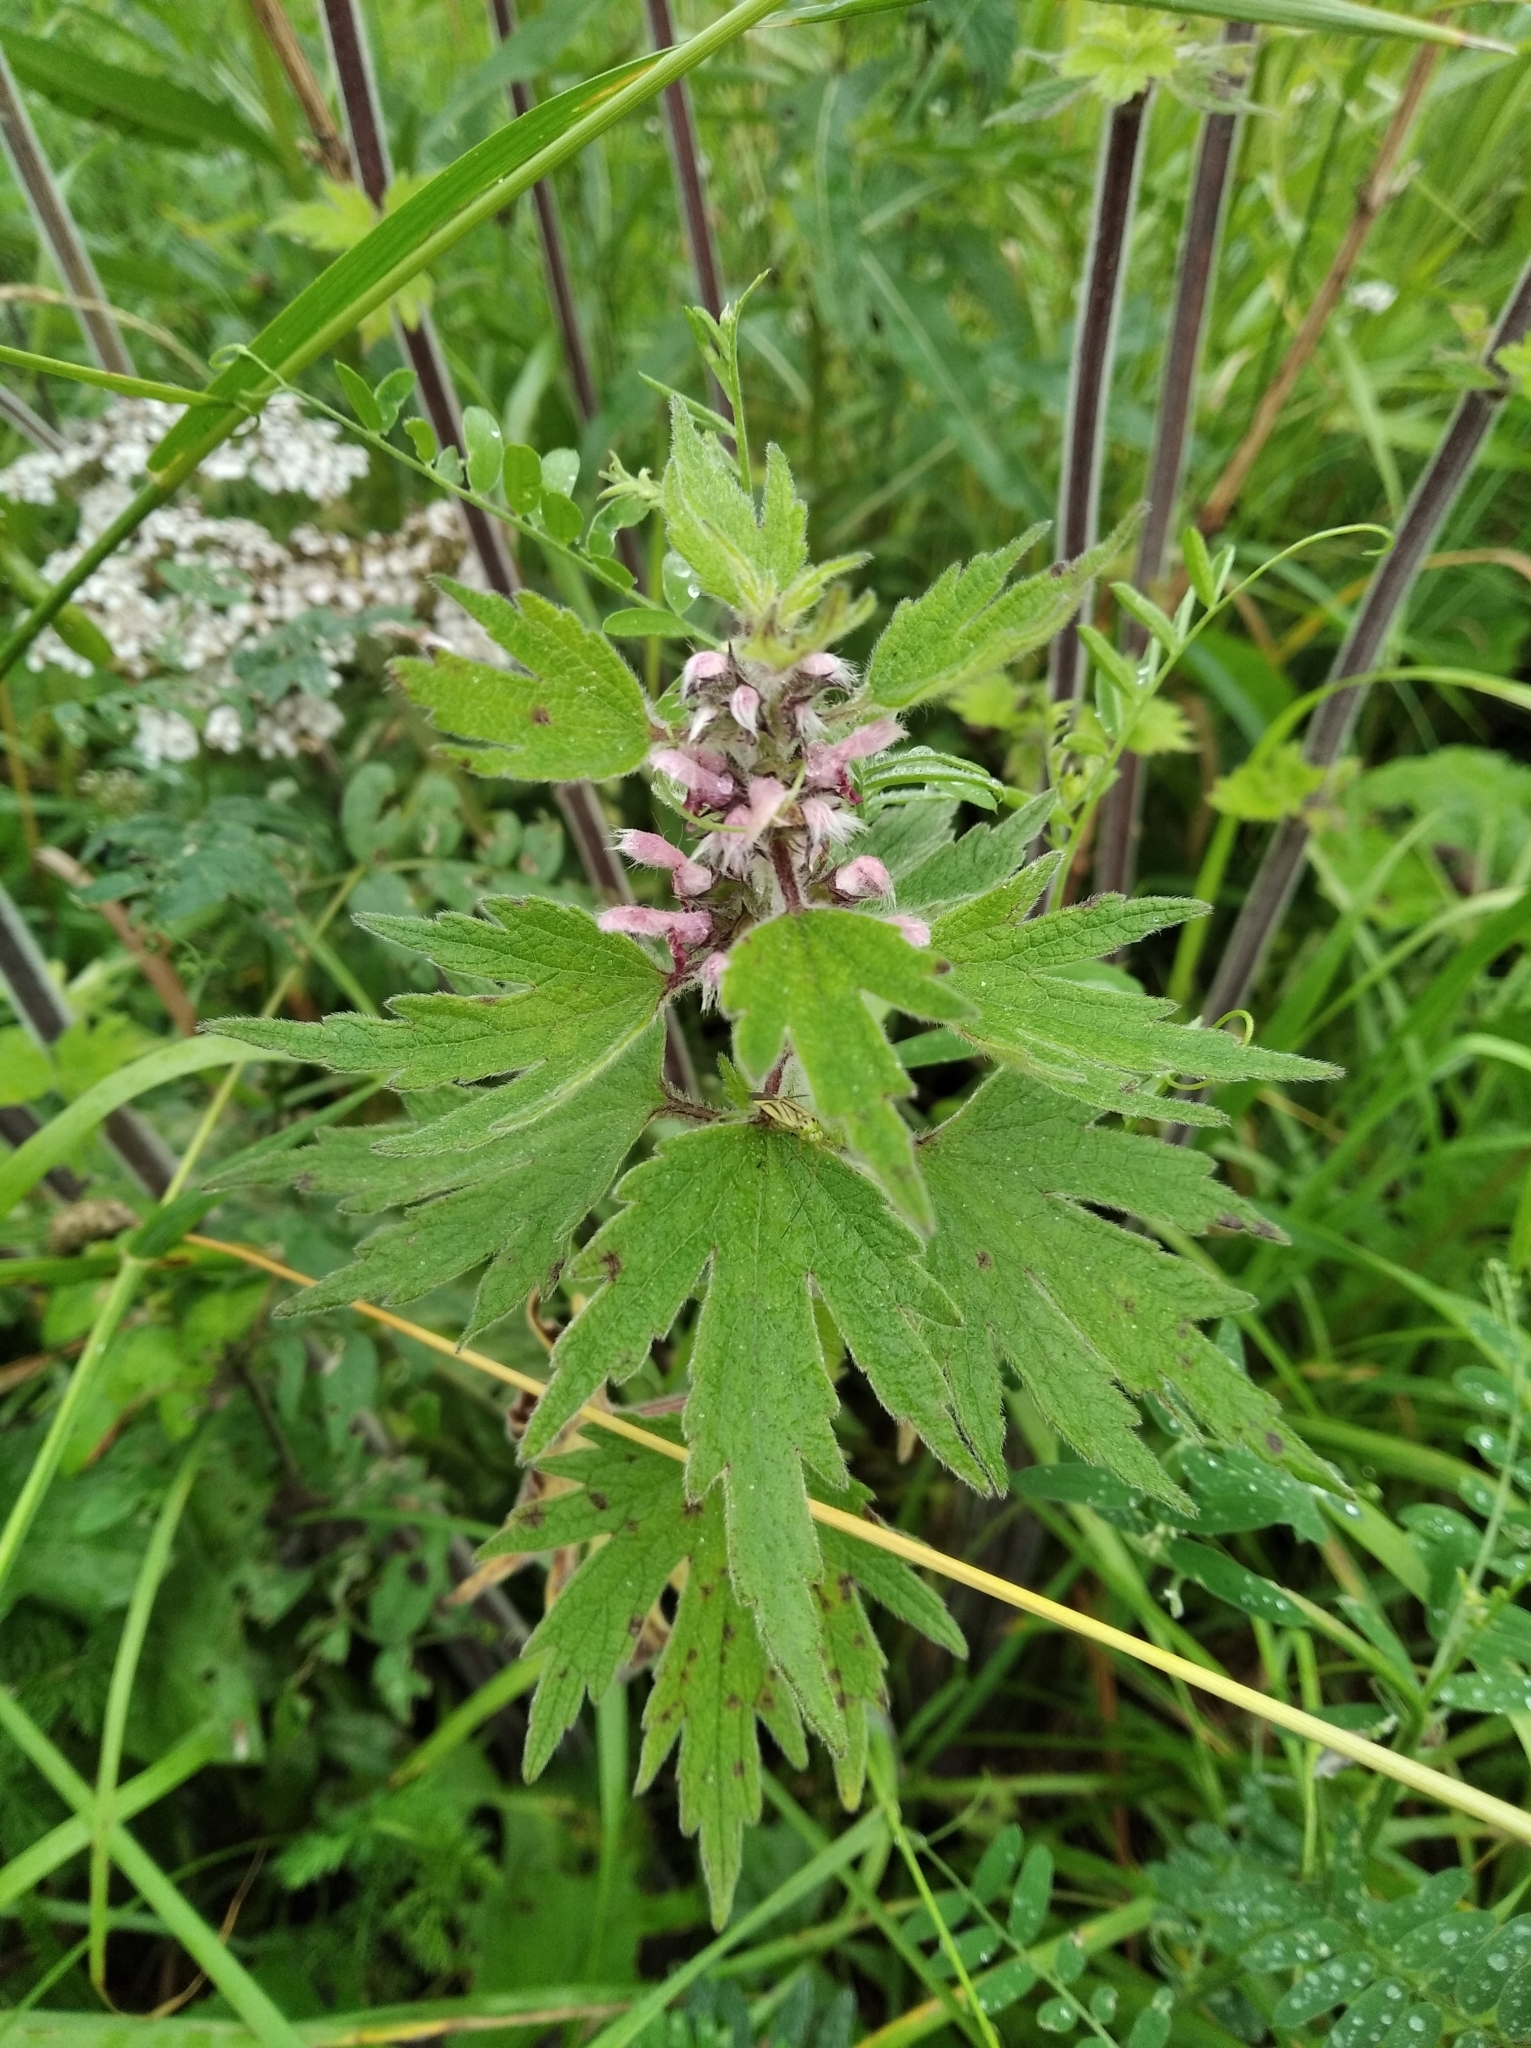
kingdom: Plantae
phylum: Tracheophyta
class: Magnoliopsida
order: Lamiales
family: Lamiaceae
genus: Leonurus
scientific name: Leonurus quinquelobatus
